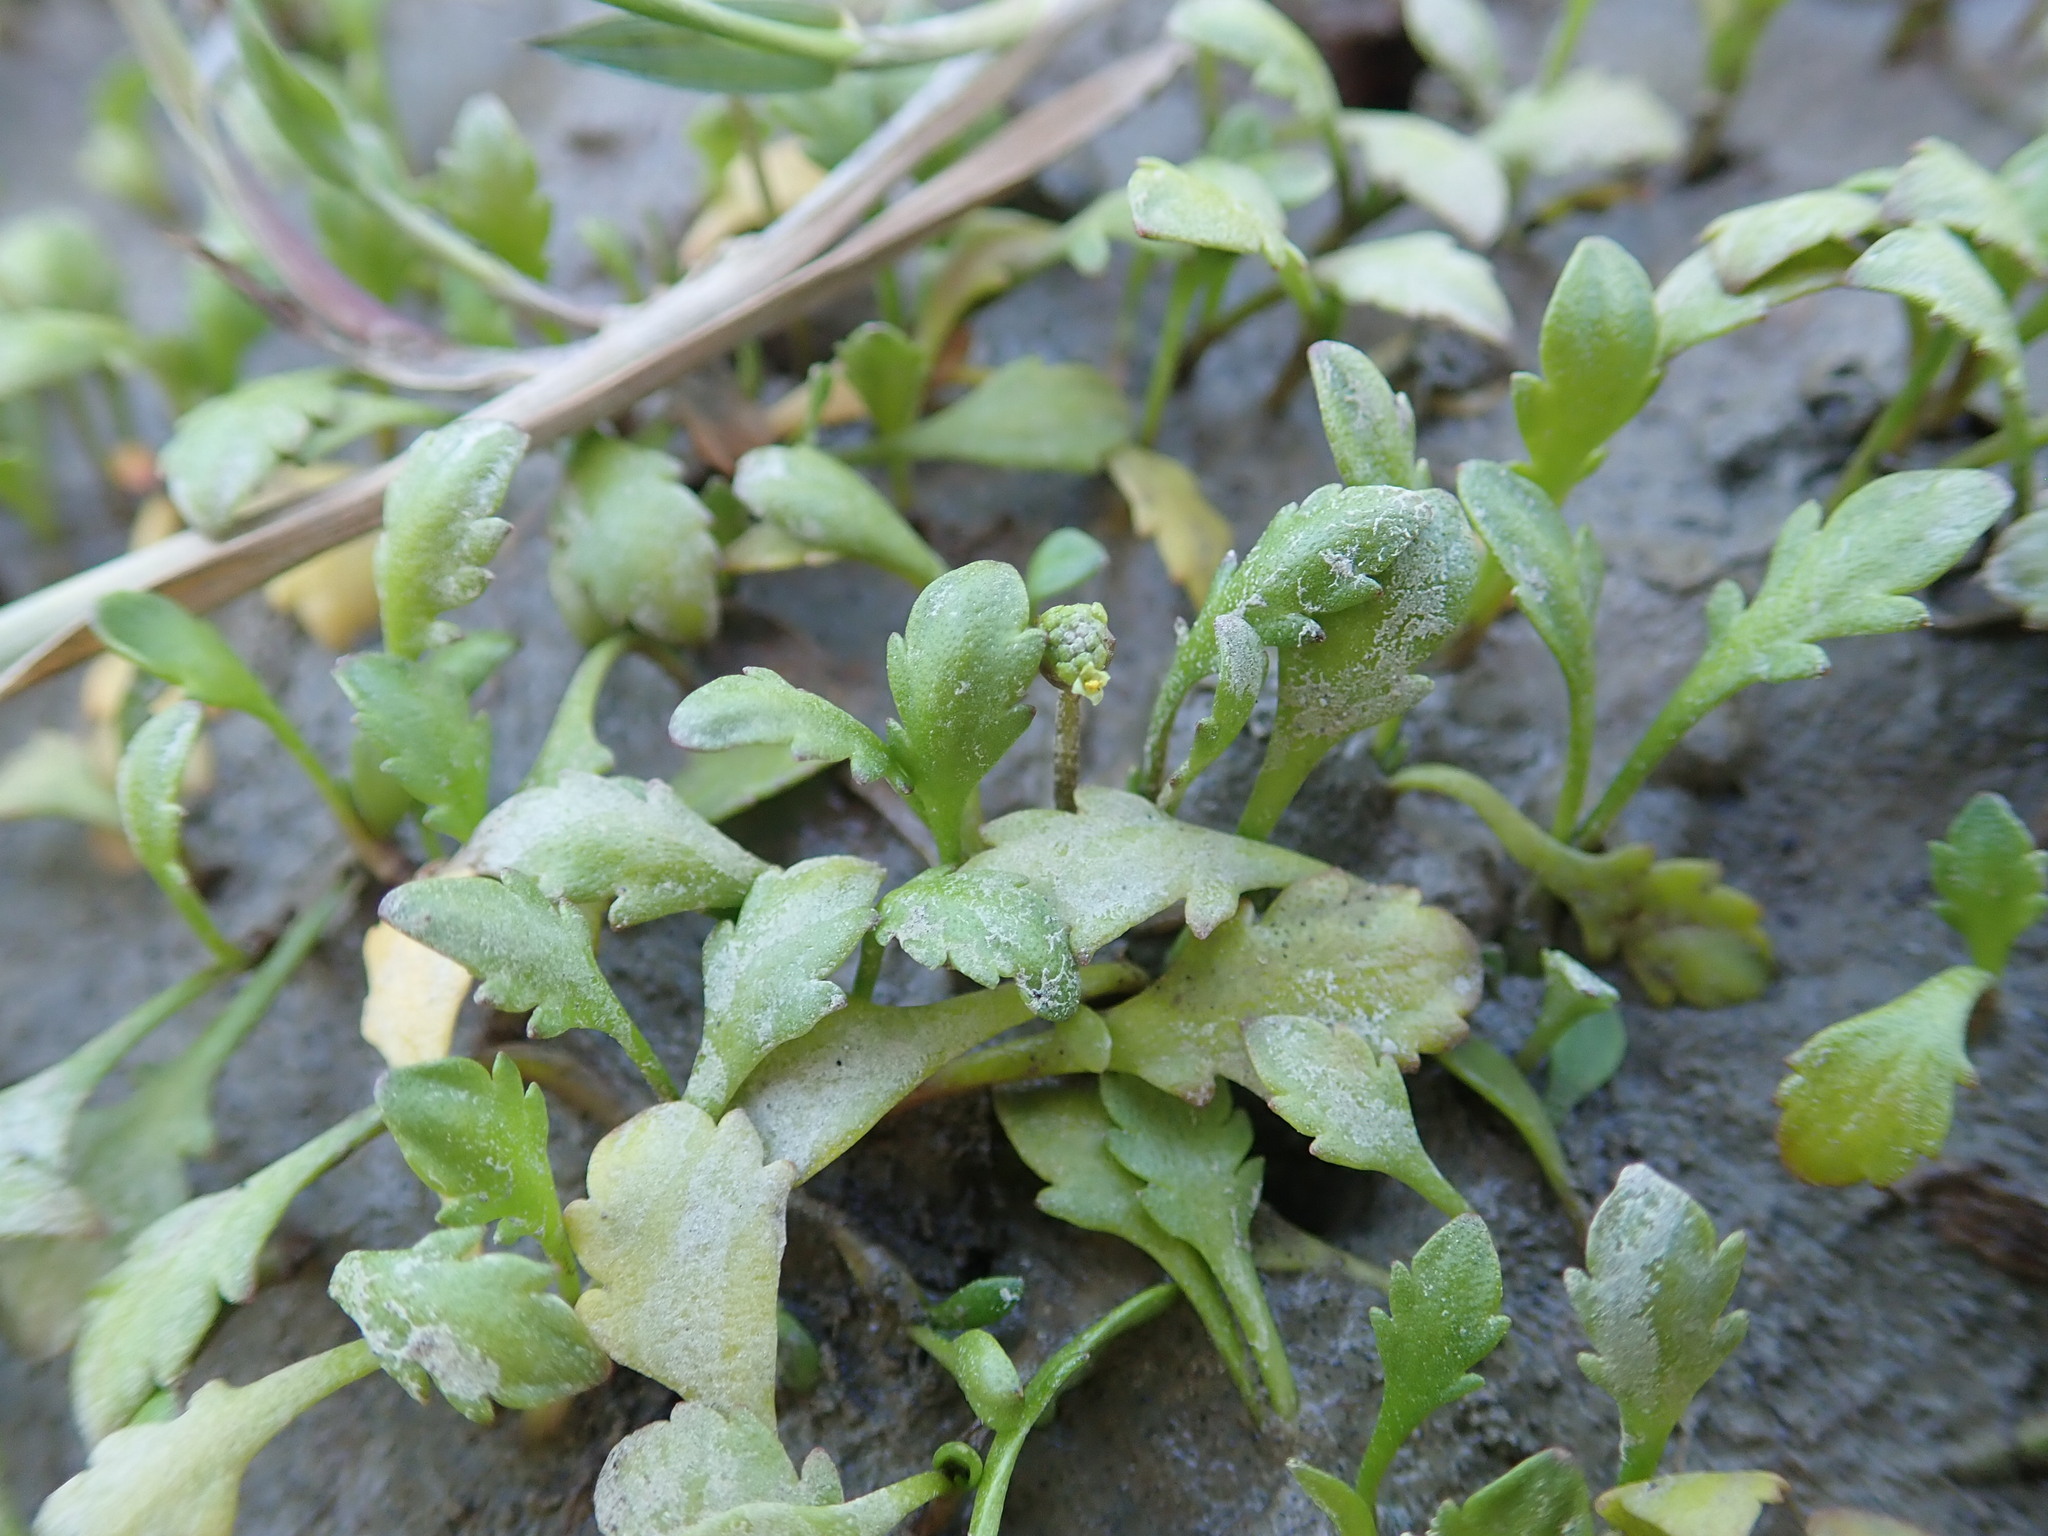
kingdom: Plantae
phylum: Tracheophyta
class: Magnoliopsida
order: Asterales
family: Asteraceae
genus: Leptinella
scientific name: Leptinella dioica
